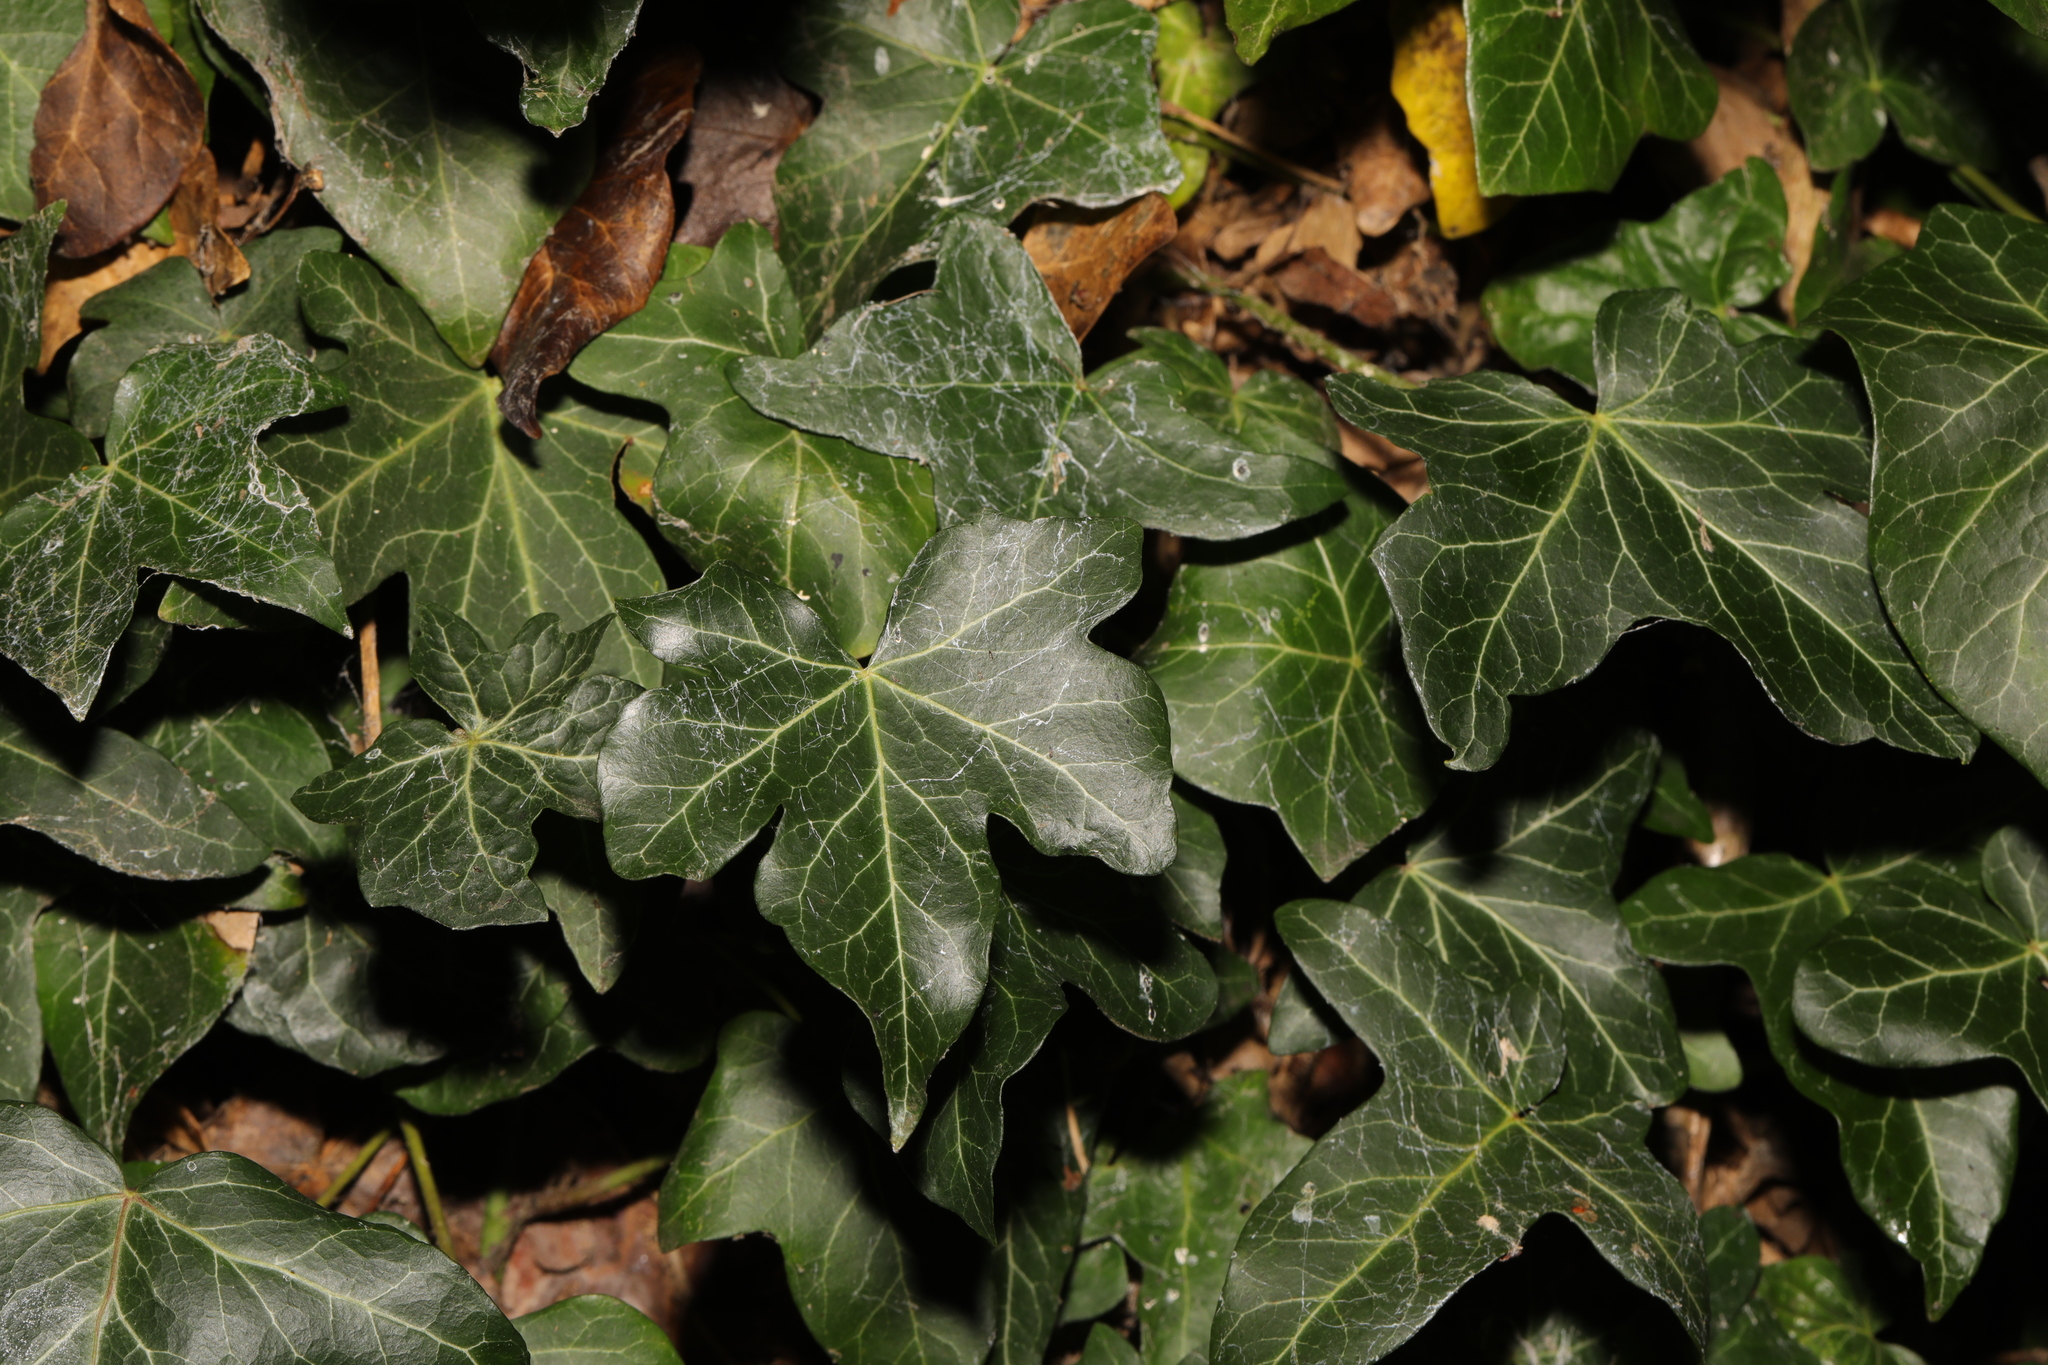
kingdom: Plantae
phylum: Tracheophyta
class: Magnoliopsida
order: Apiales
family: Araliaceae
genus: Hedera
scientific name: Hedera helix
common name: Ivy
